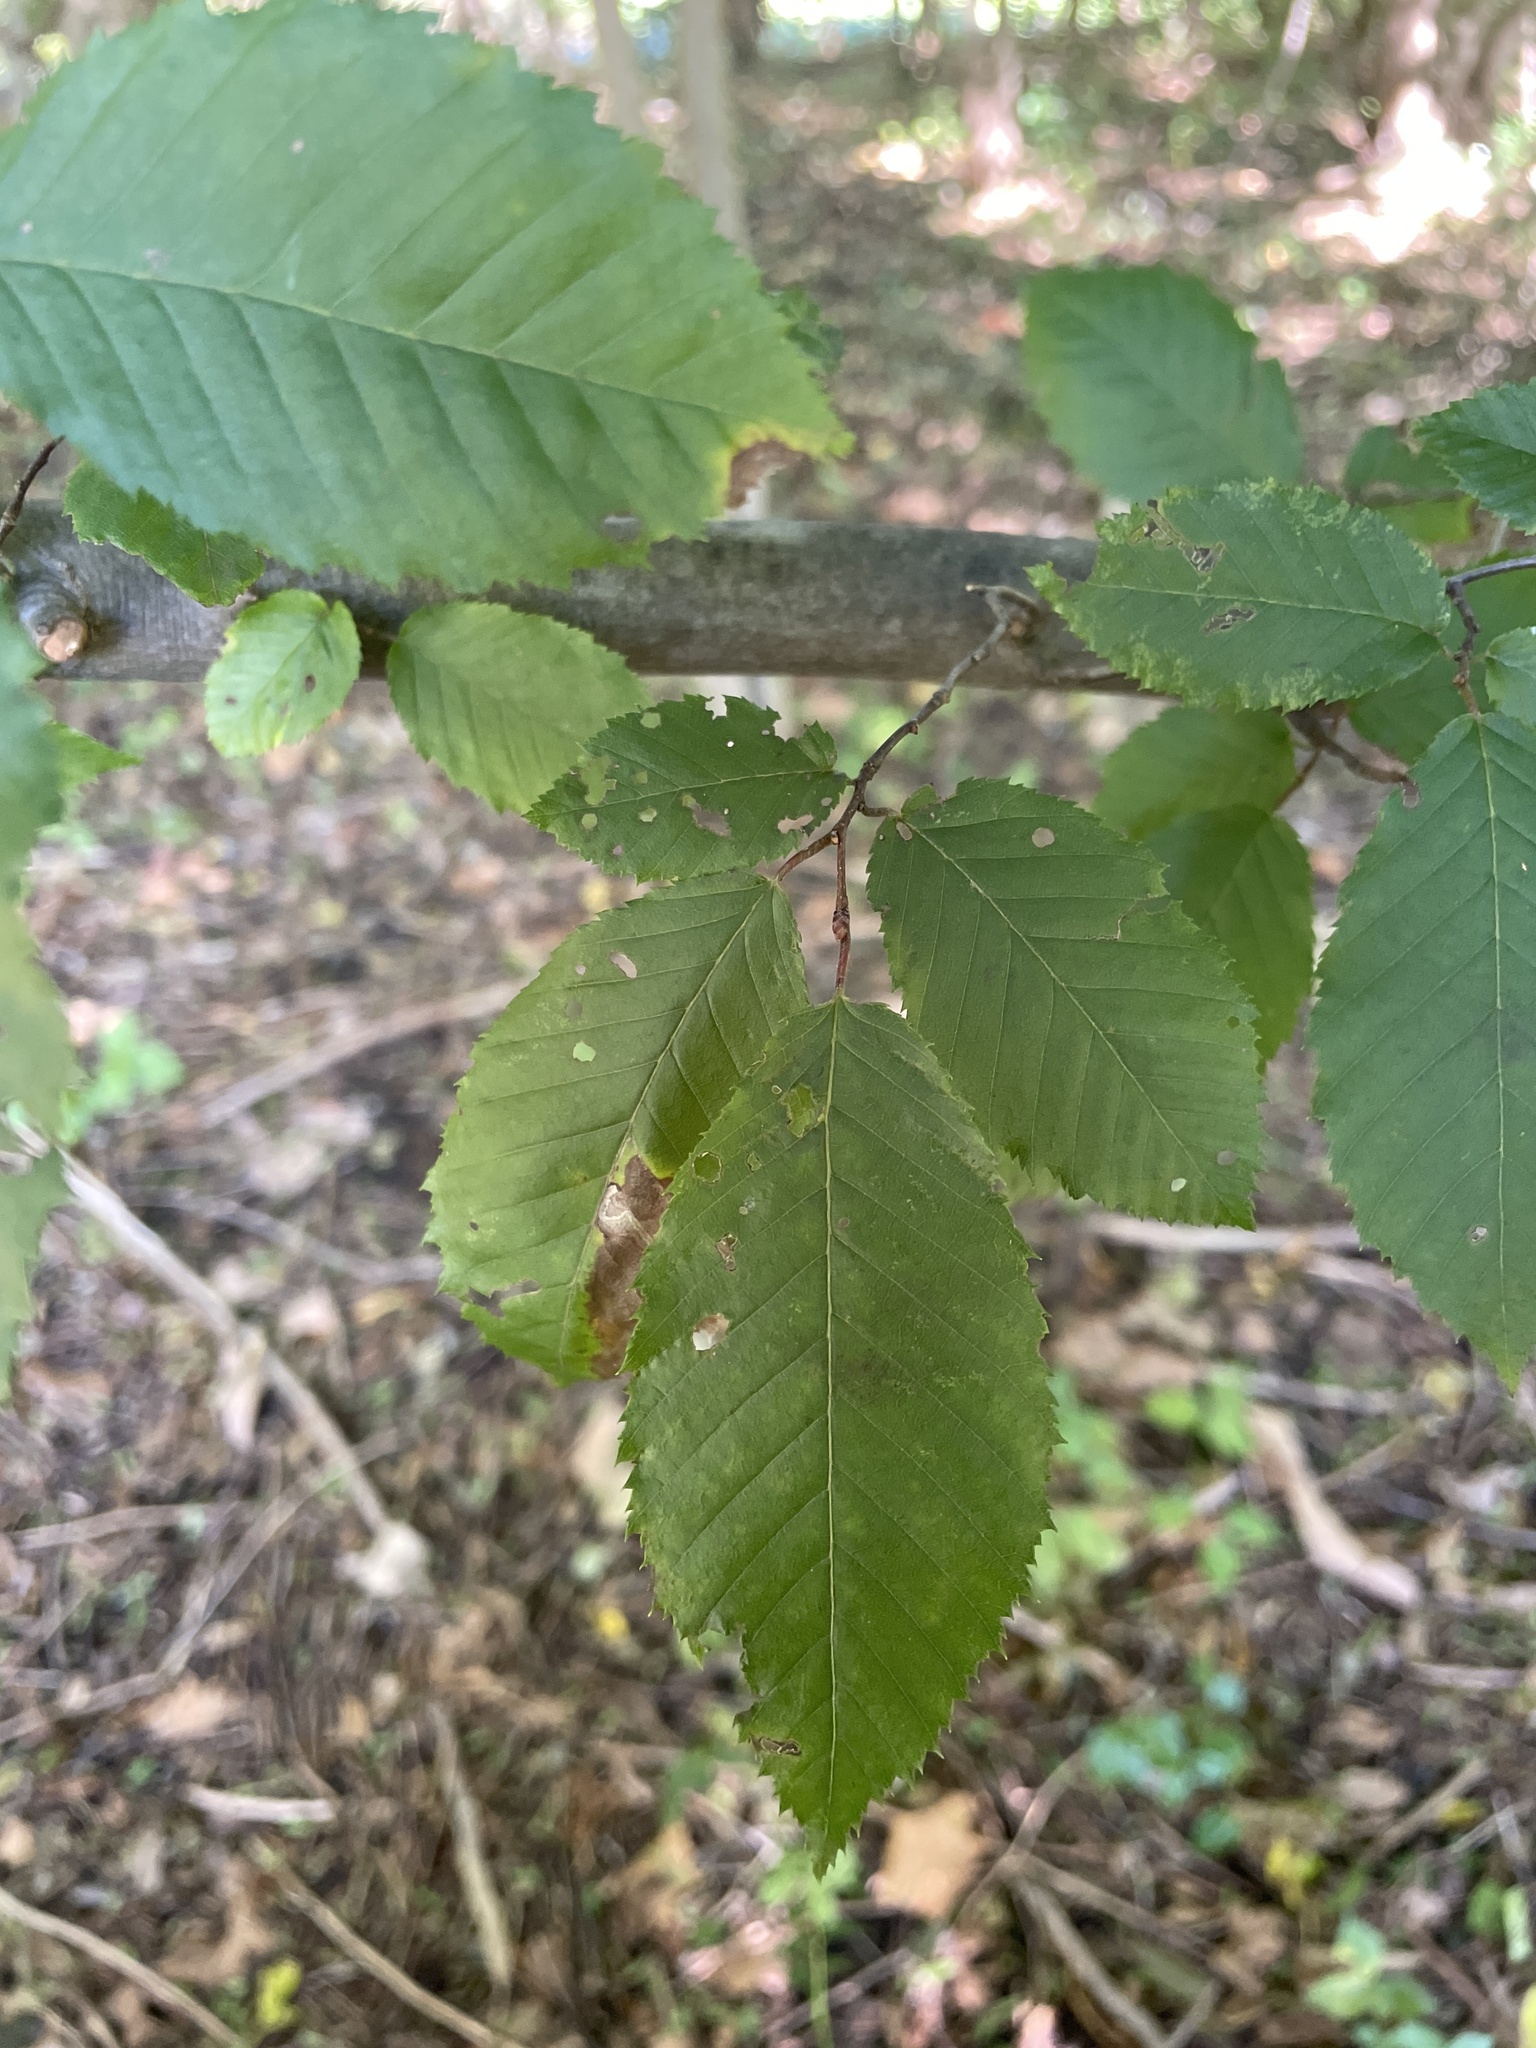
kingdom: Plantae
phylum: Tracheophyta
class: Magnoliopsida
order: Fagales
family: Betulaceae
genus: Carpinus
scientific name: Carpinus caroliniana
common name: American hornbeam
